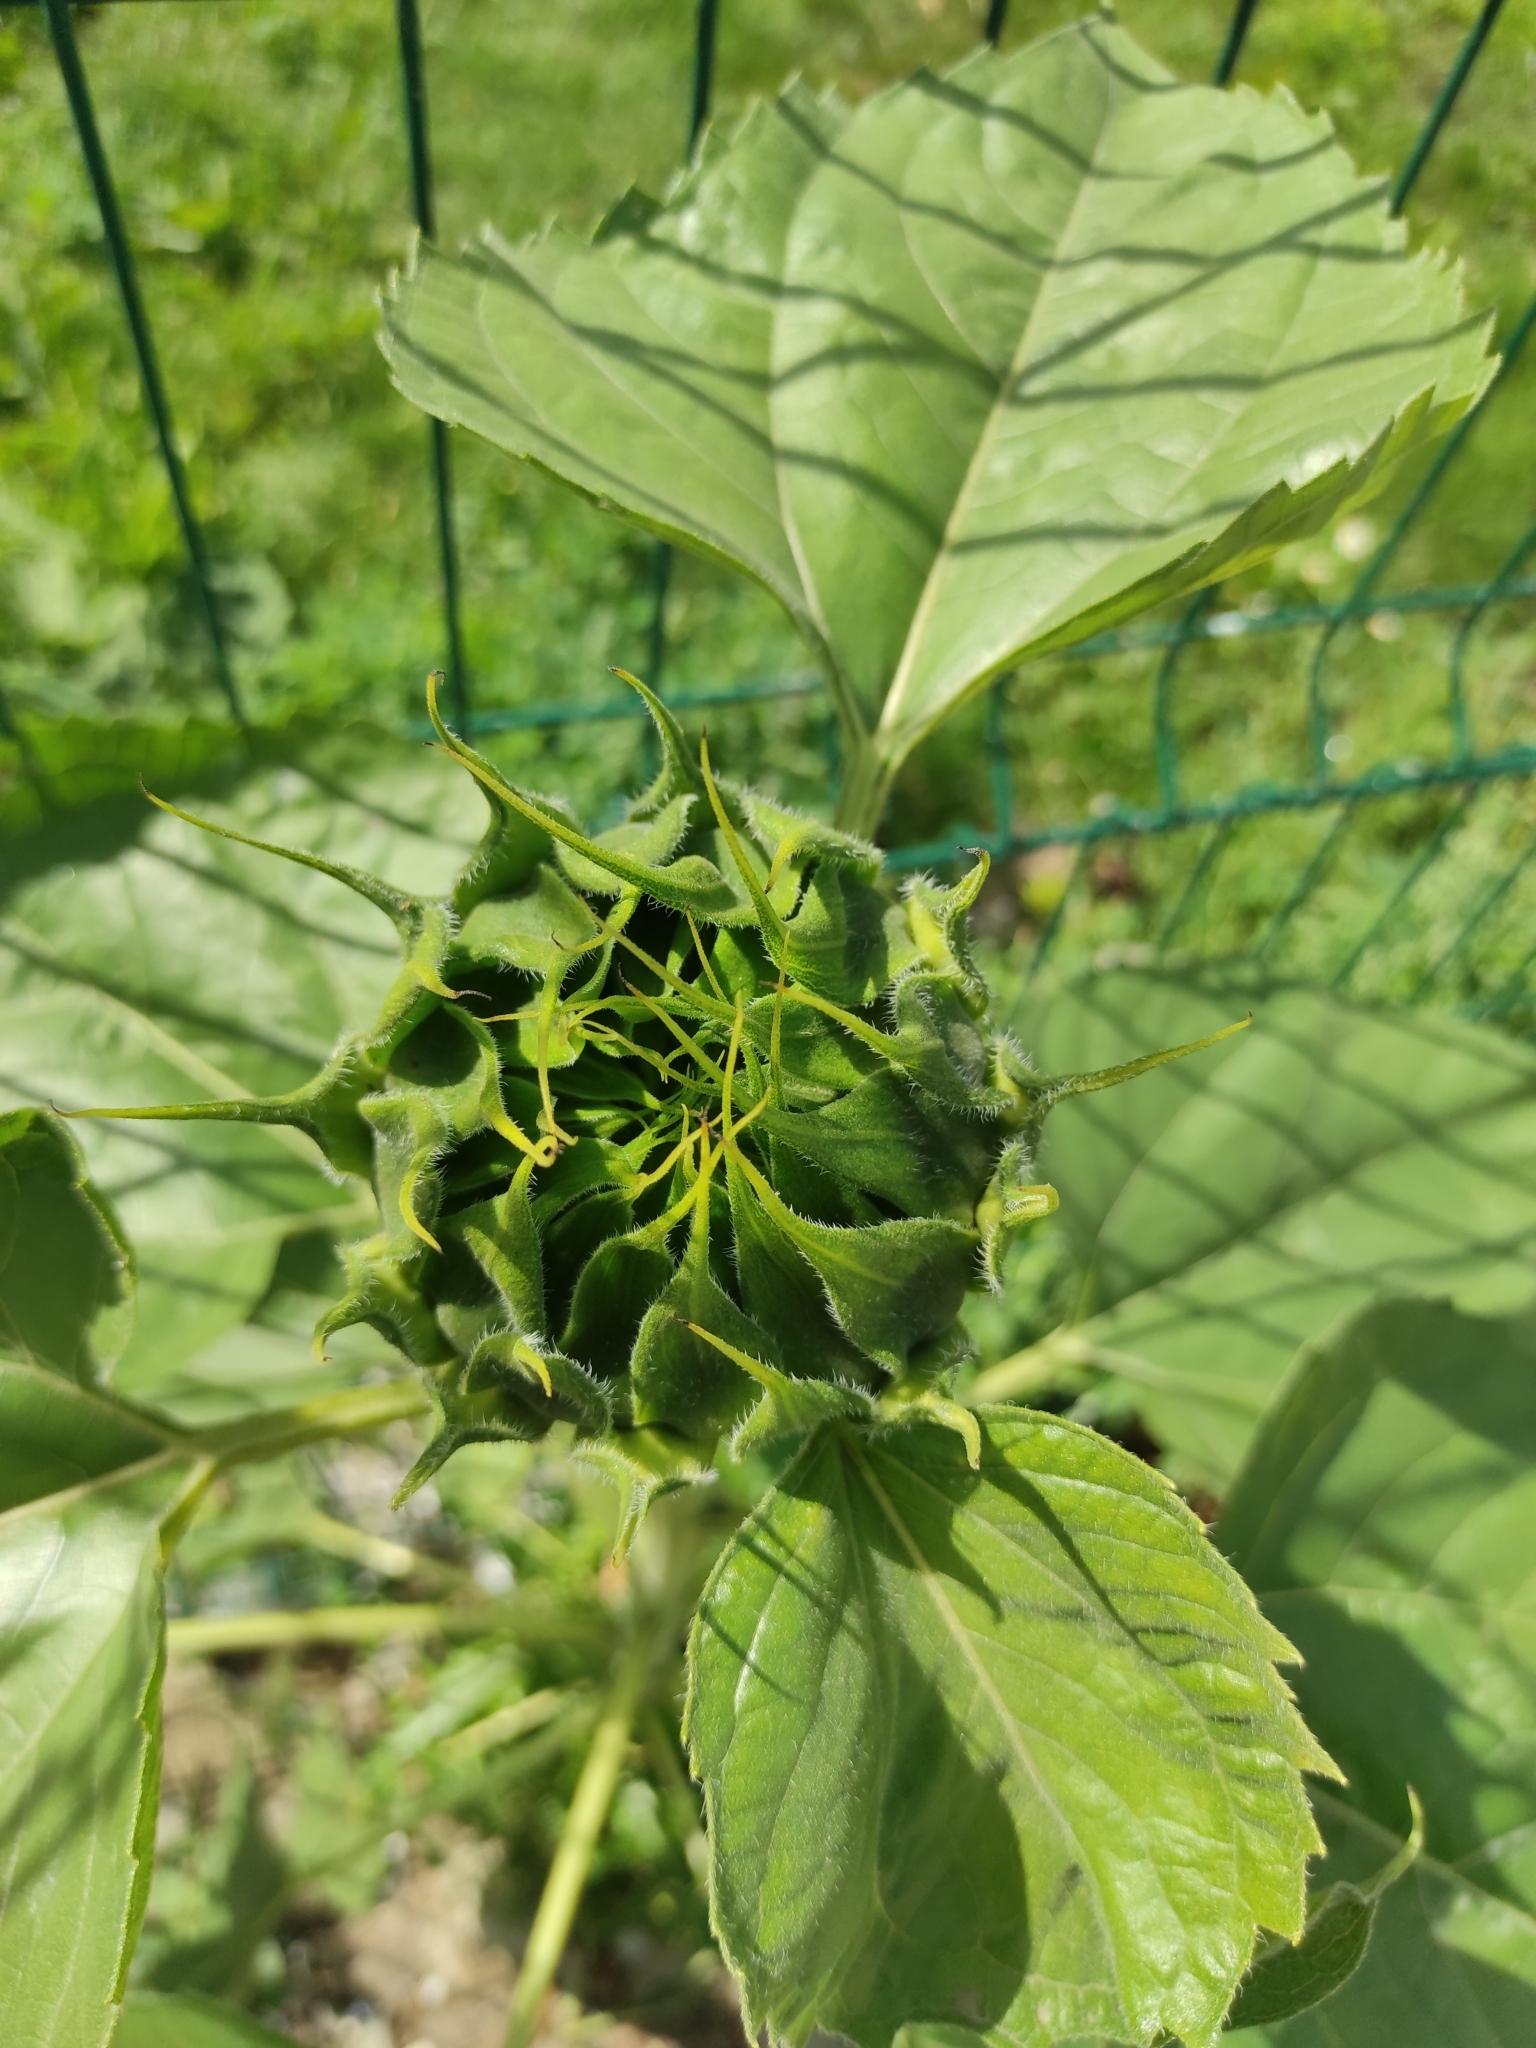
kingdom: Plantae
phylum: Tracheophyta
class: Magnoliopsida
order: Asterales
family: Asteraceae
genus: Helianthus
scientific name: Helianthus annuus
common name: Sunflower
